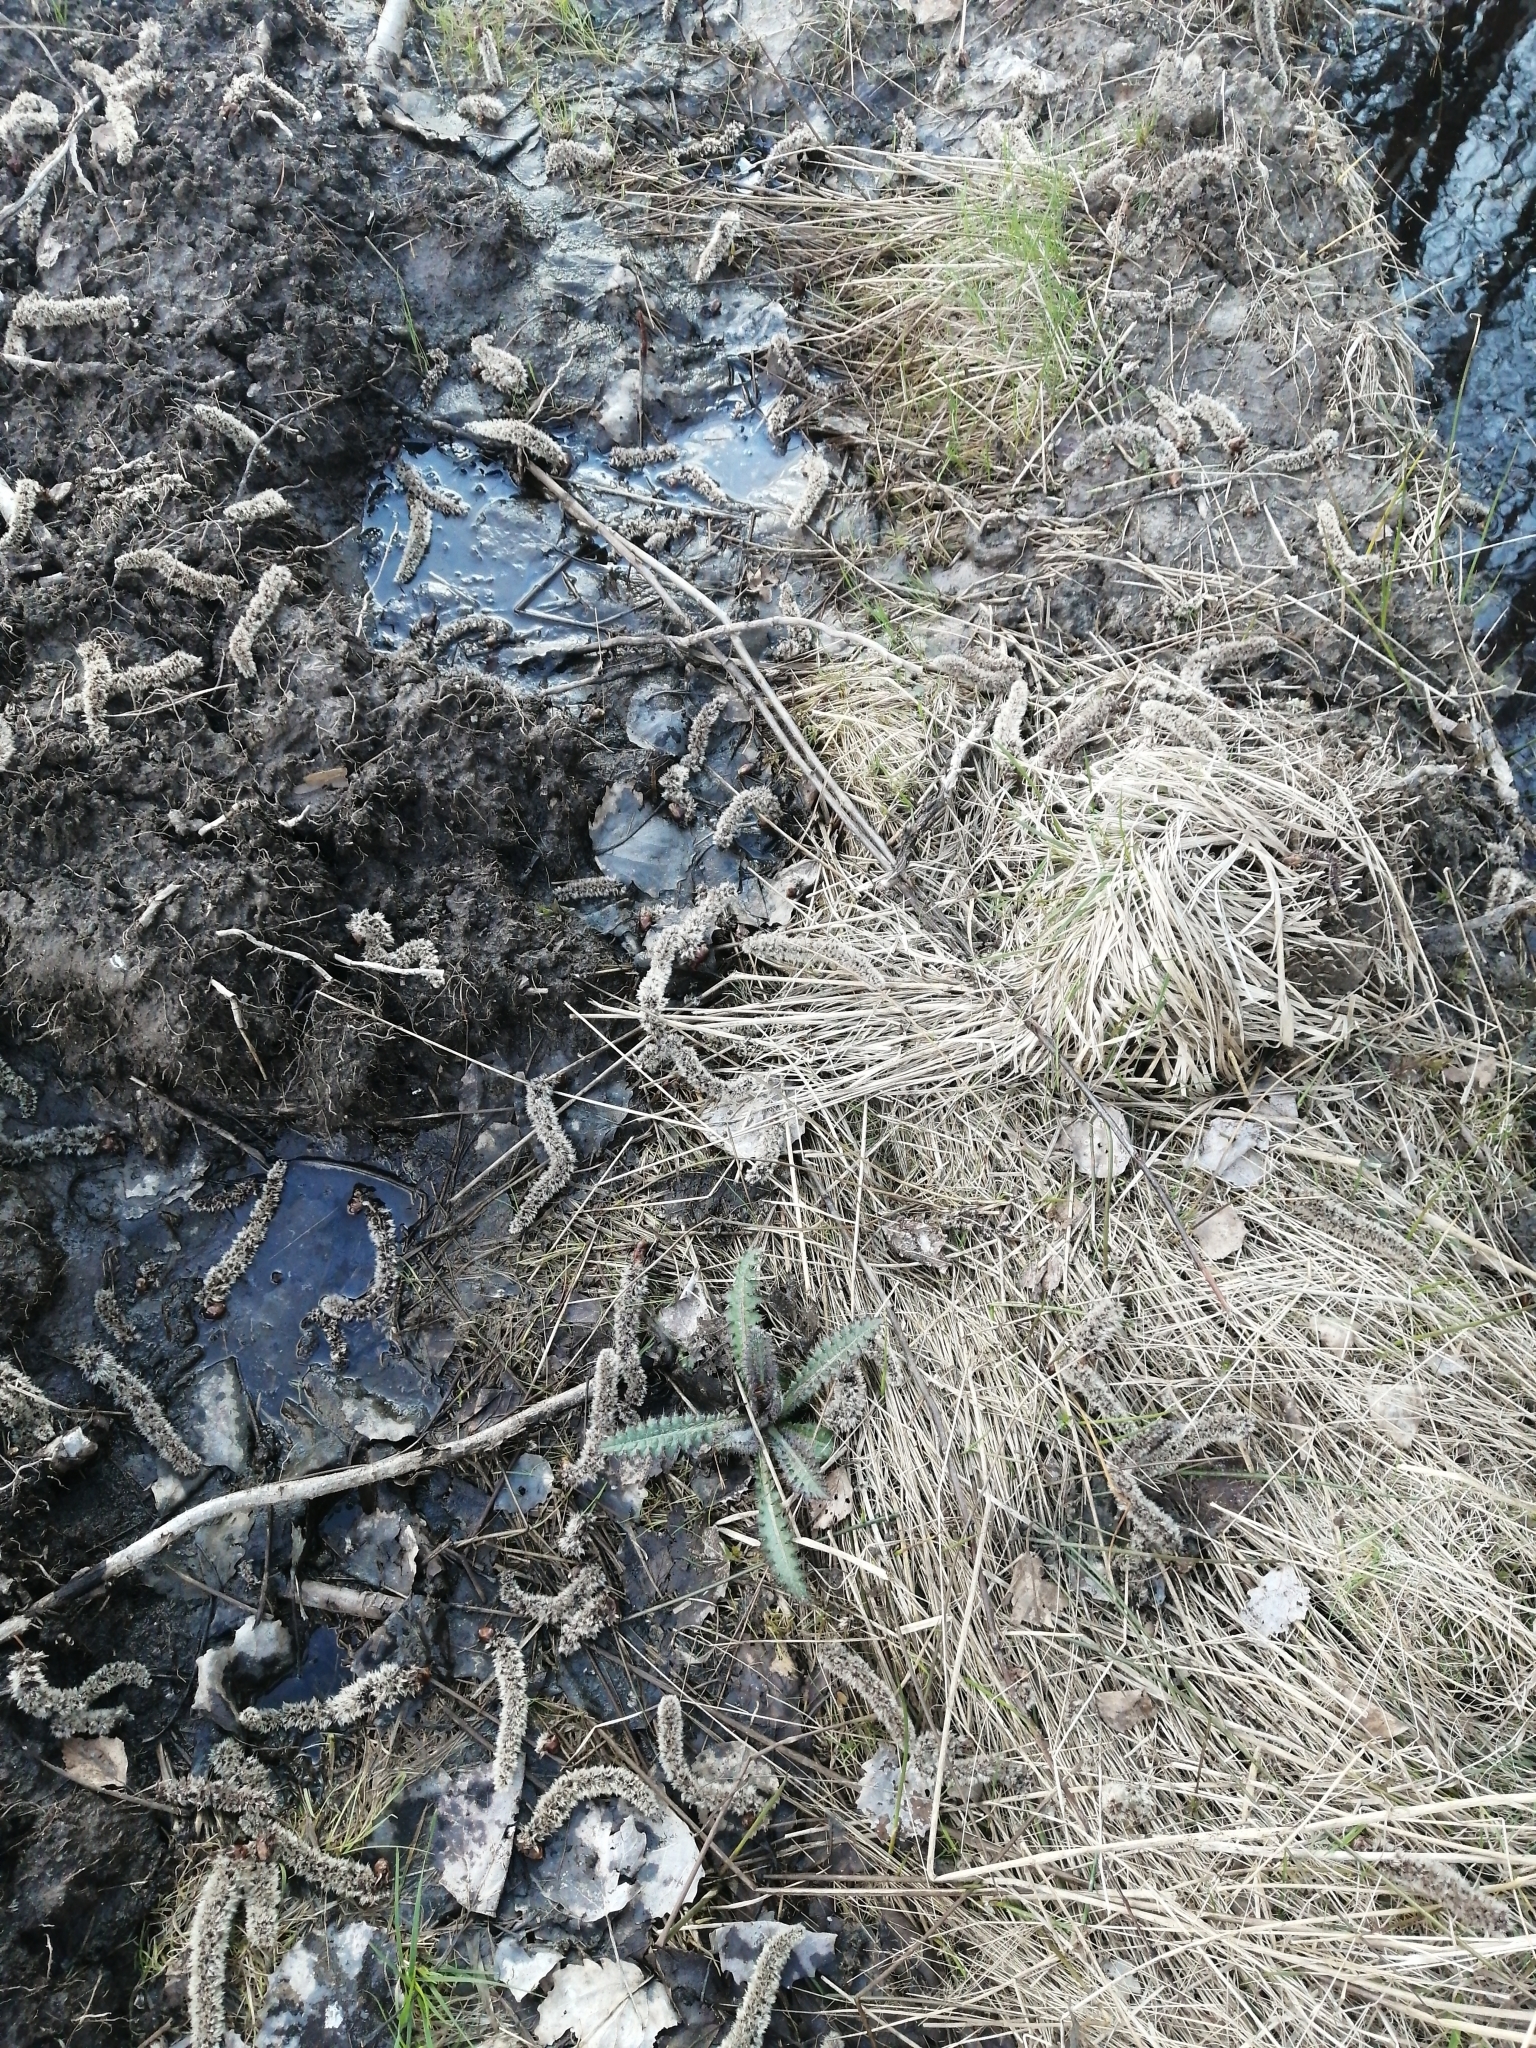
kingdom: Plantae
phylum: Tracheophyta
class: Magnoliopsida
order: Asterales
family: Asteraceae
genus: Cirsium
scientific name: Cirsium palustre
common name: Marsh thistle
